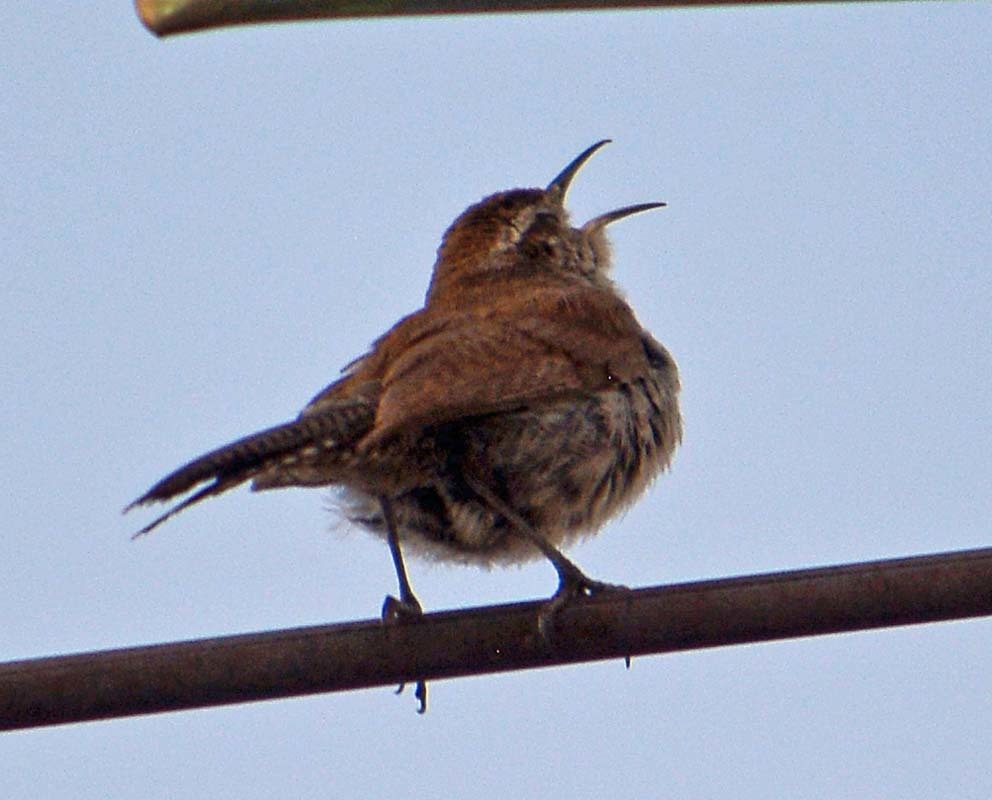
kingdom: Animalia
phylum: Chordata
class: Aves
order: Passeriformes
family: Troglodytidae
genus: Thryomanes
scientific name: Thryomanes bewickii
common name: Bewick's wren
